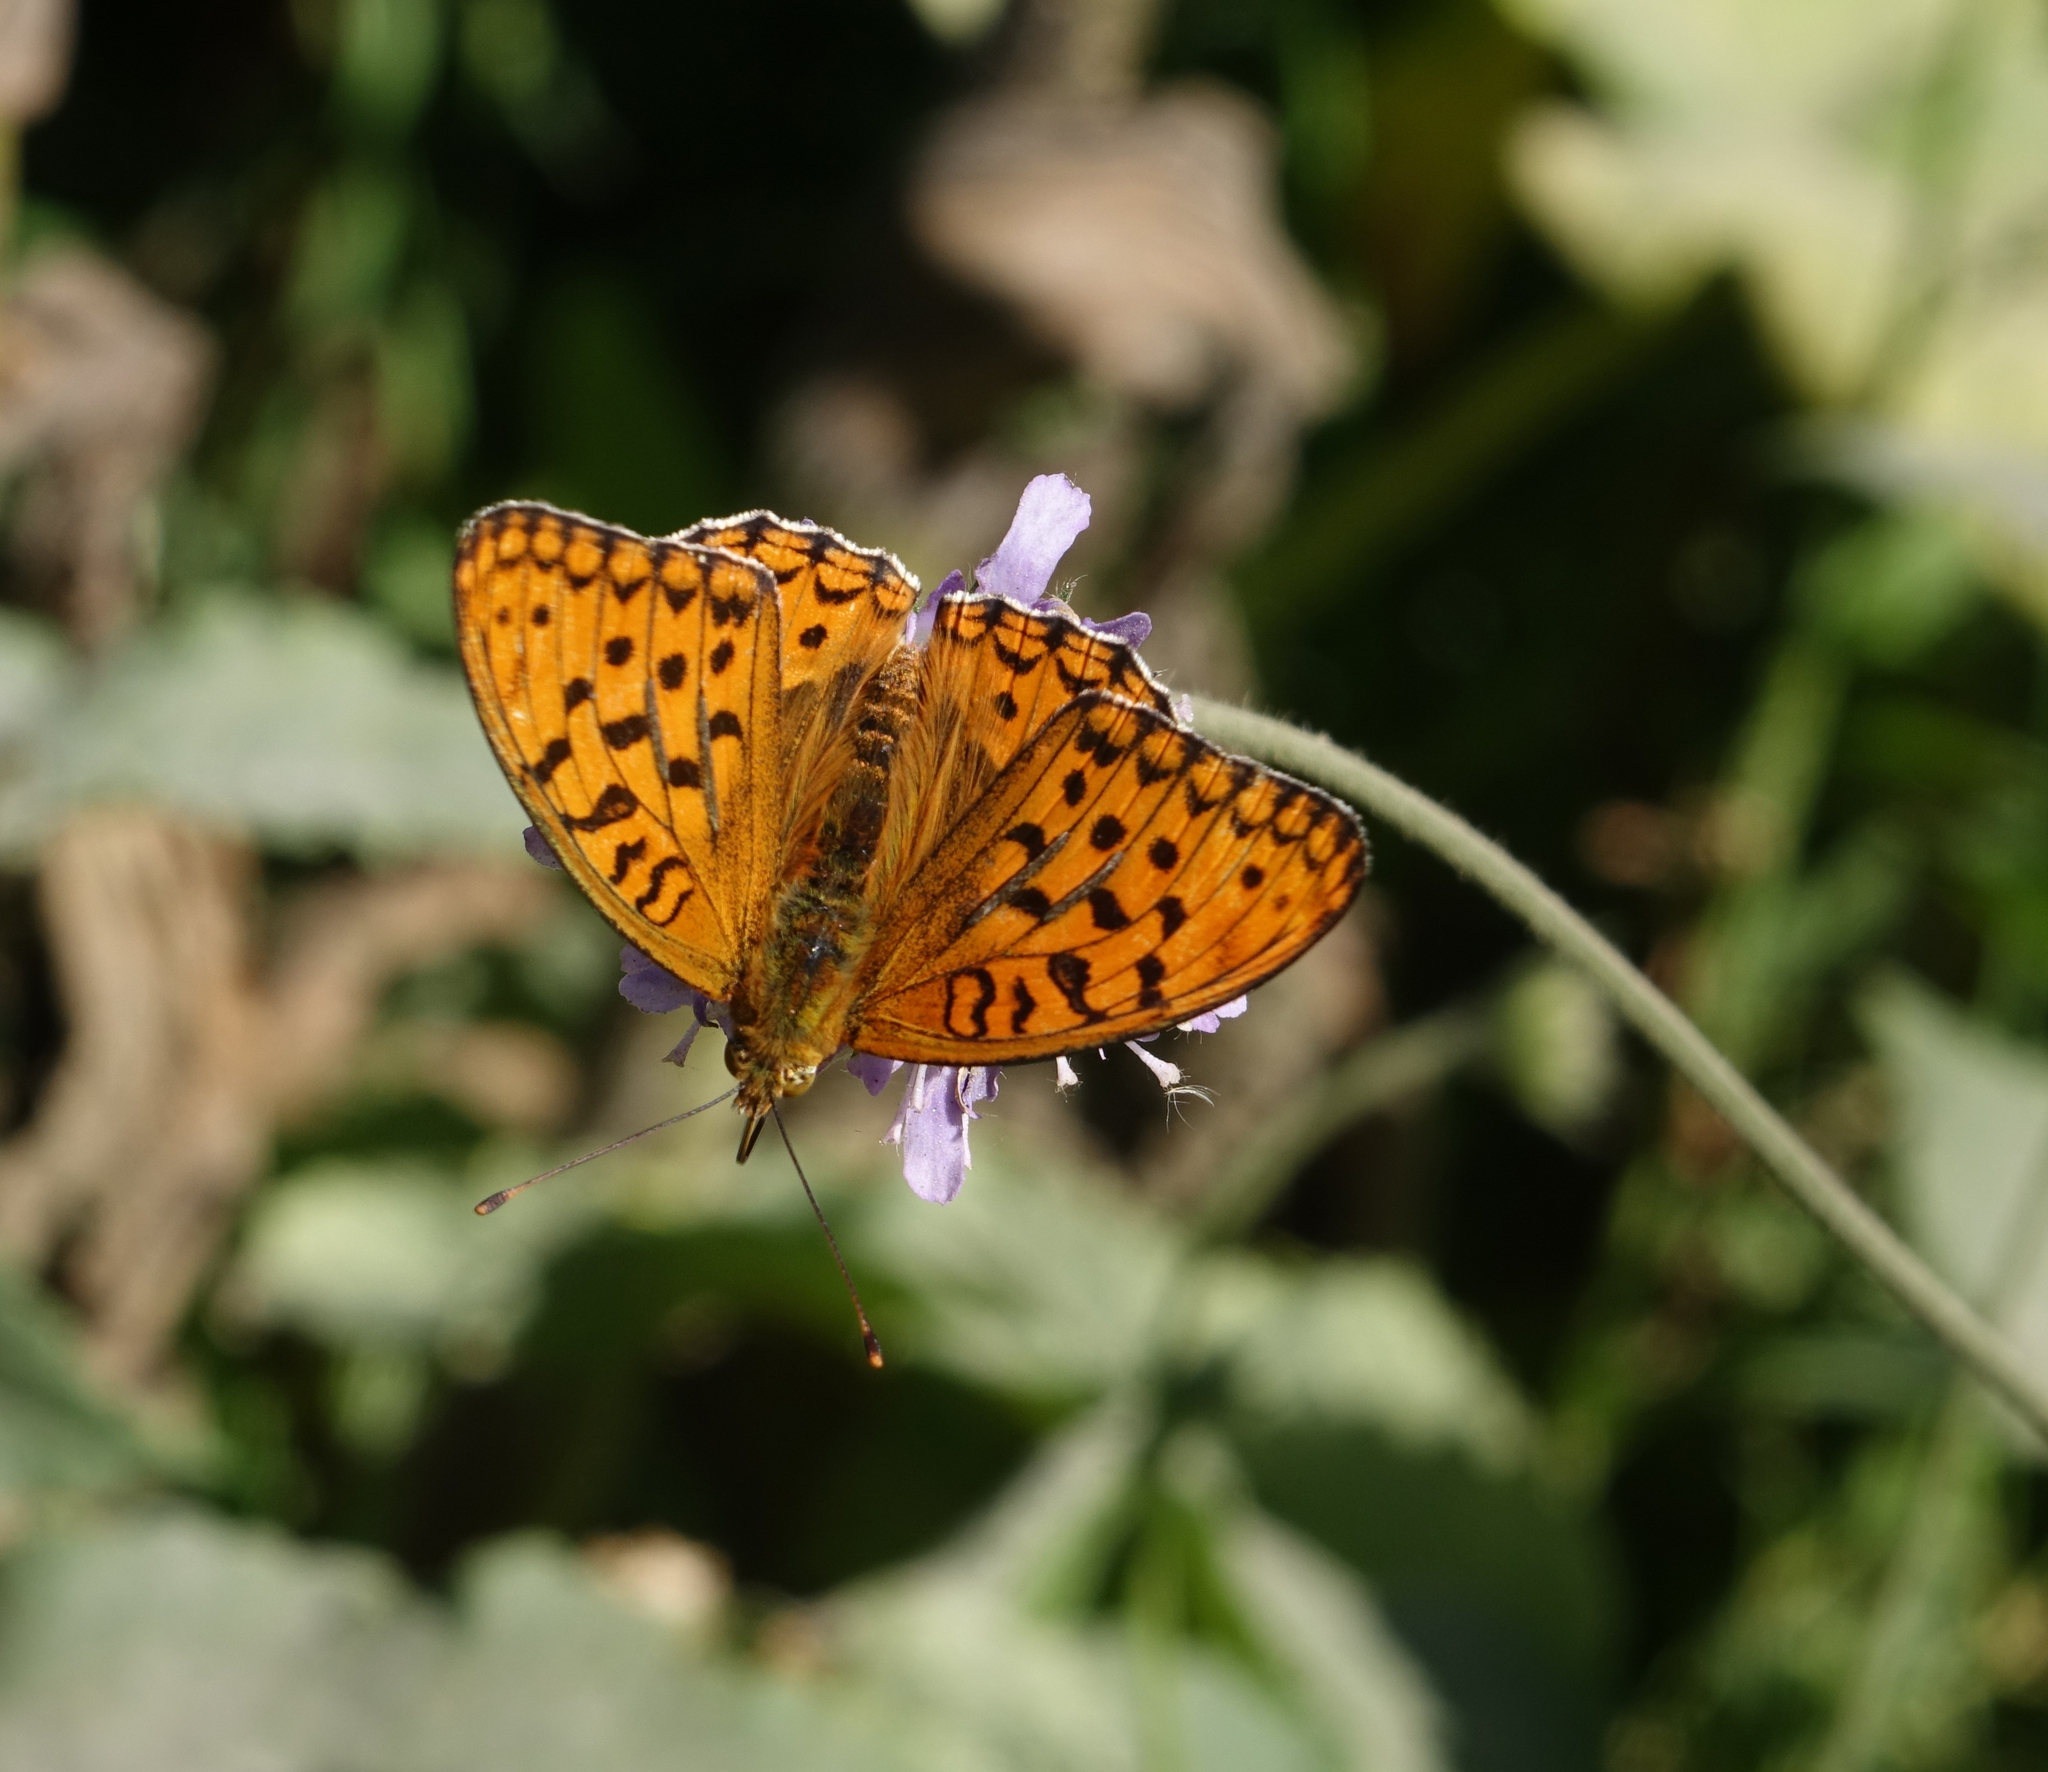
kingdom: Animalia
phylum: Arthropoda
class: Insecta
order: Lepidoptera
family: Nymphalidae
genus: Fabriciana
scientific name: Fabriciana adippe
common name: High brown fritillary
